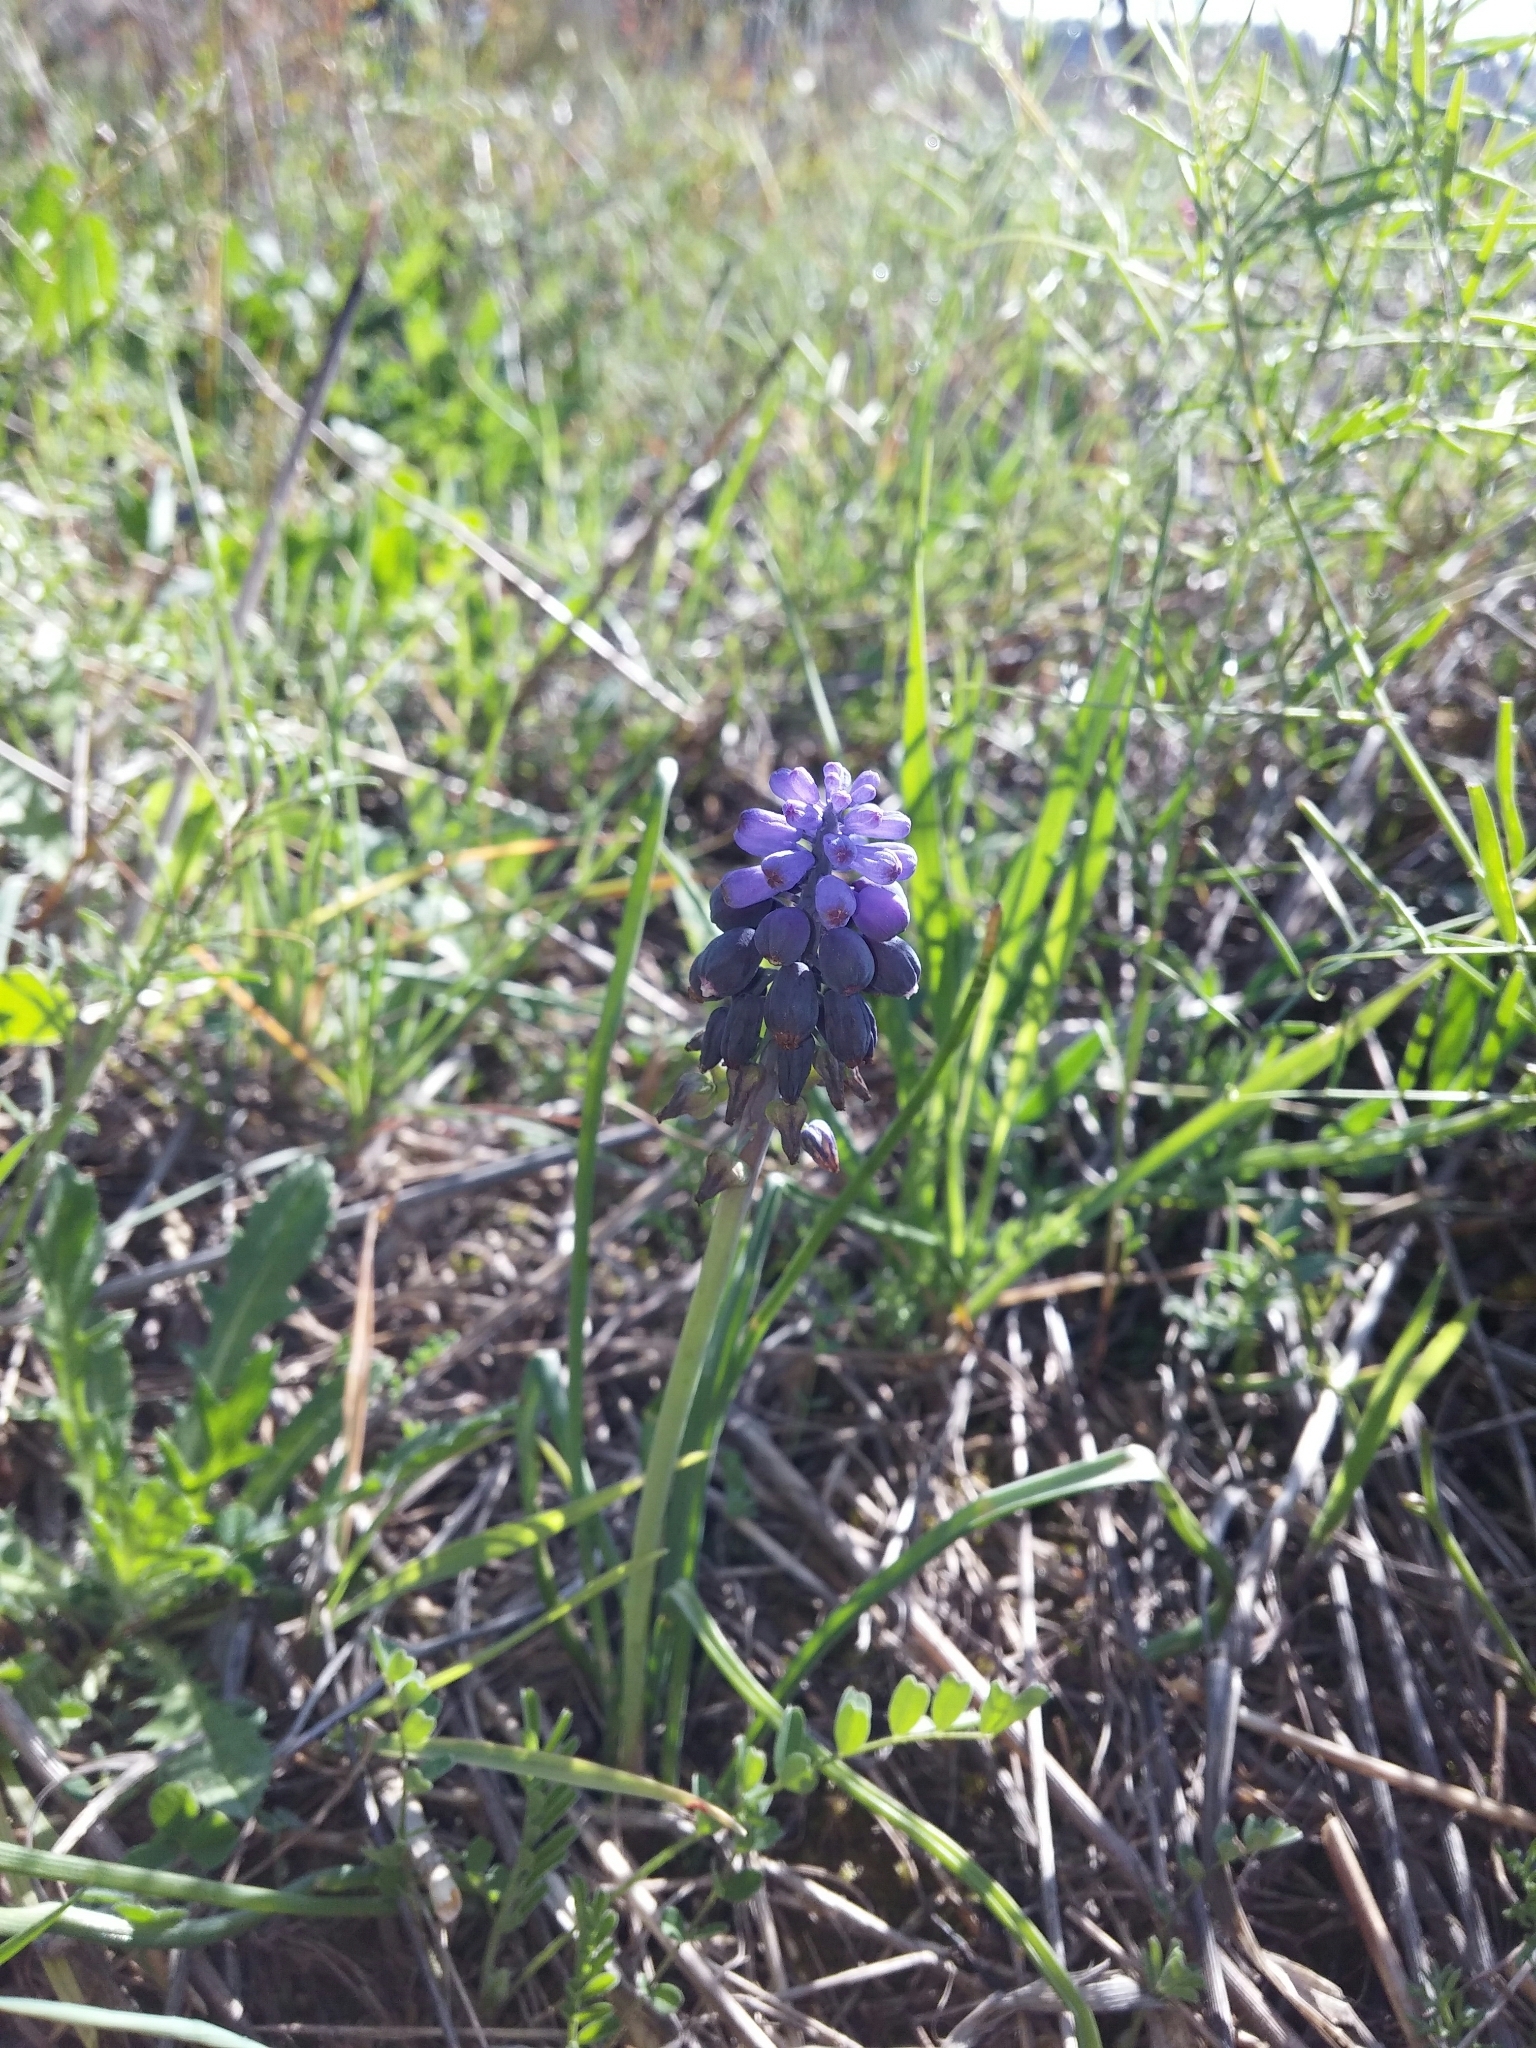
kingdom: Plantae
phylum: Tracheophyta
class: Liliopsida
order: Asparagales
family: Asparagaceae
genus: Muscari
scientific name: Muscari neglectum
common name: Grape-hyacinth
